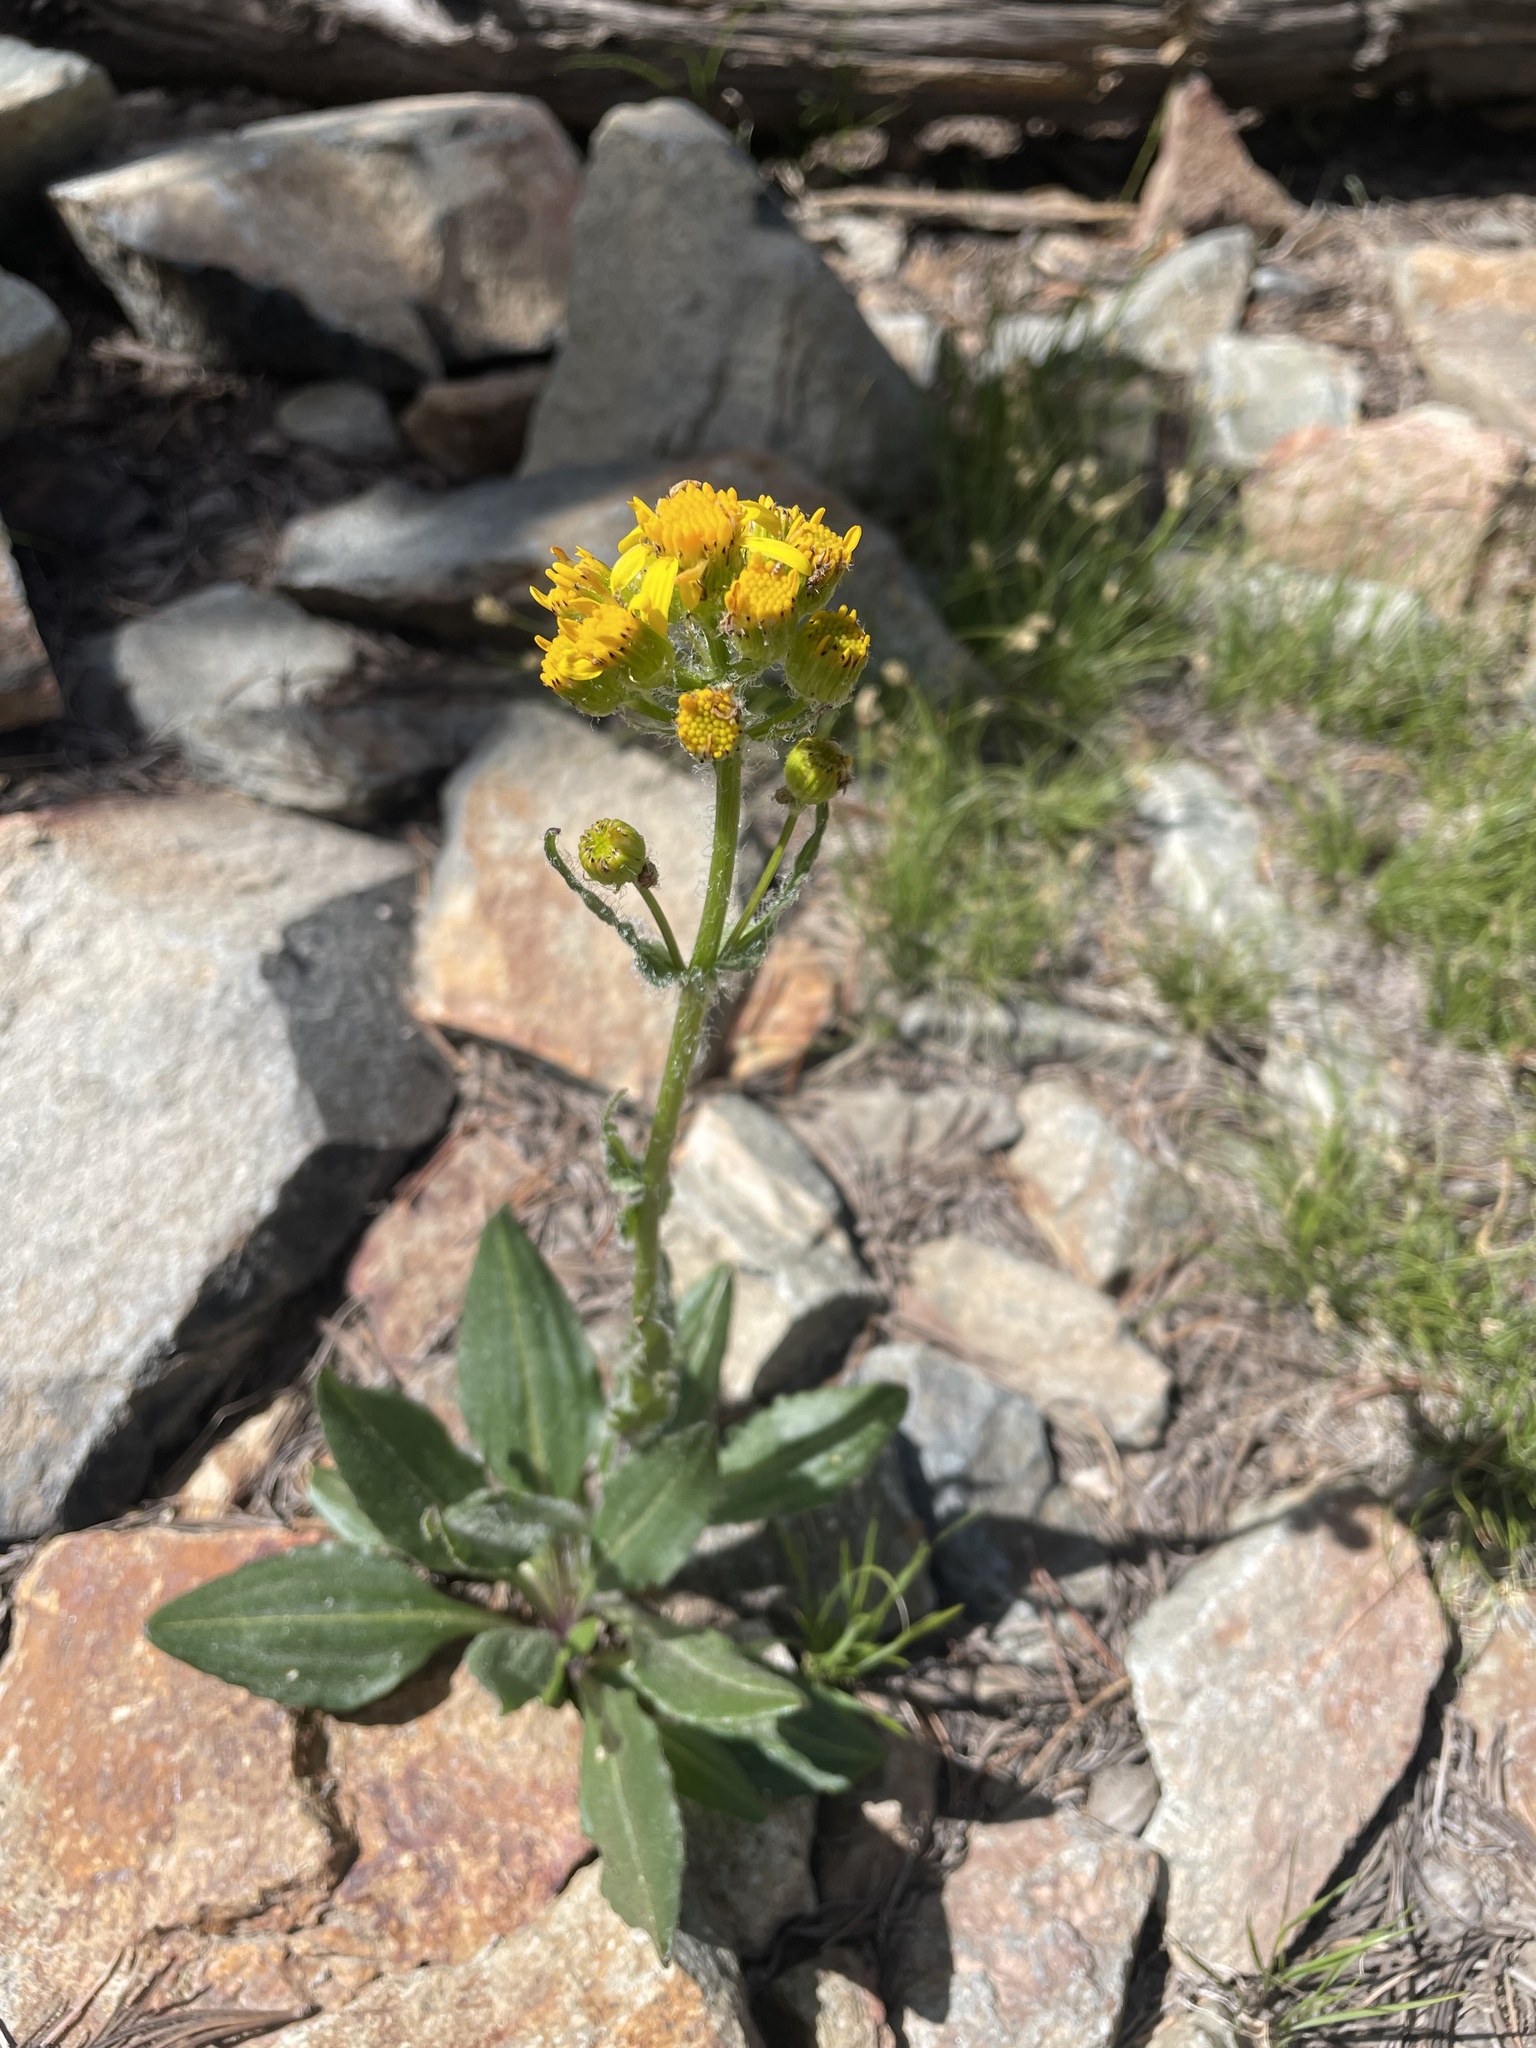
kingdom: Plantae
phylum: Tracheophyta
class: Magnoliopsida
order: Asterales
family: Asteraceae
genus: Senecio
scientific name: Senecio integerrimus
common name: Gaugeplant
